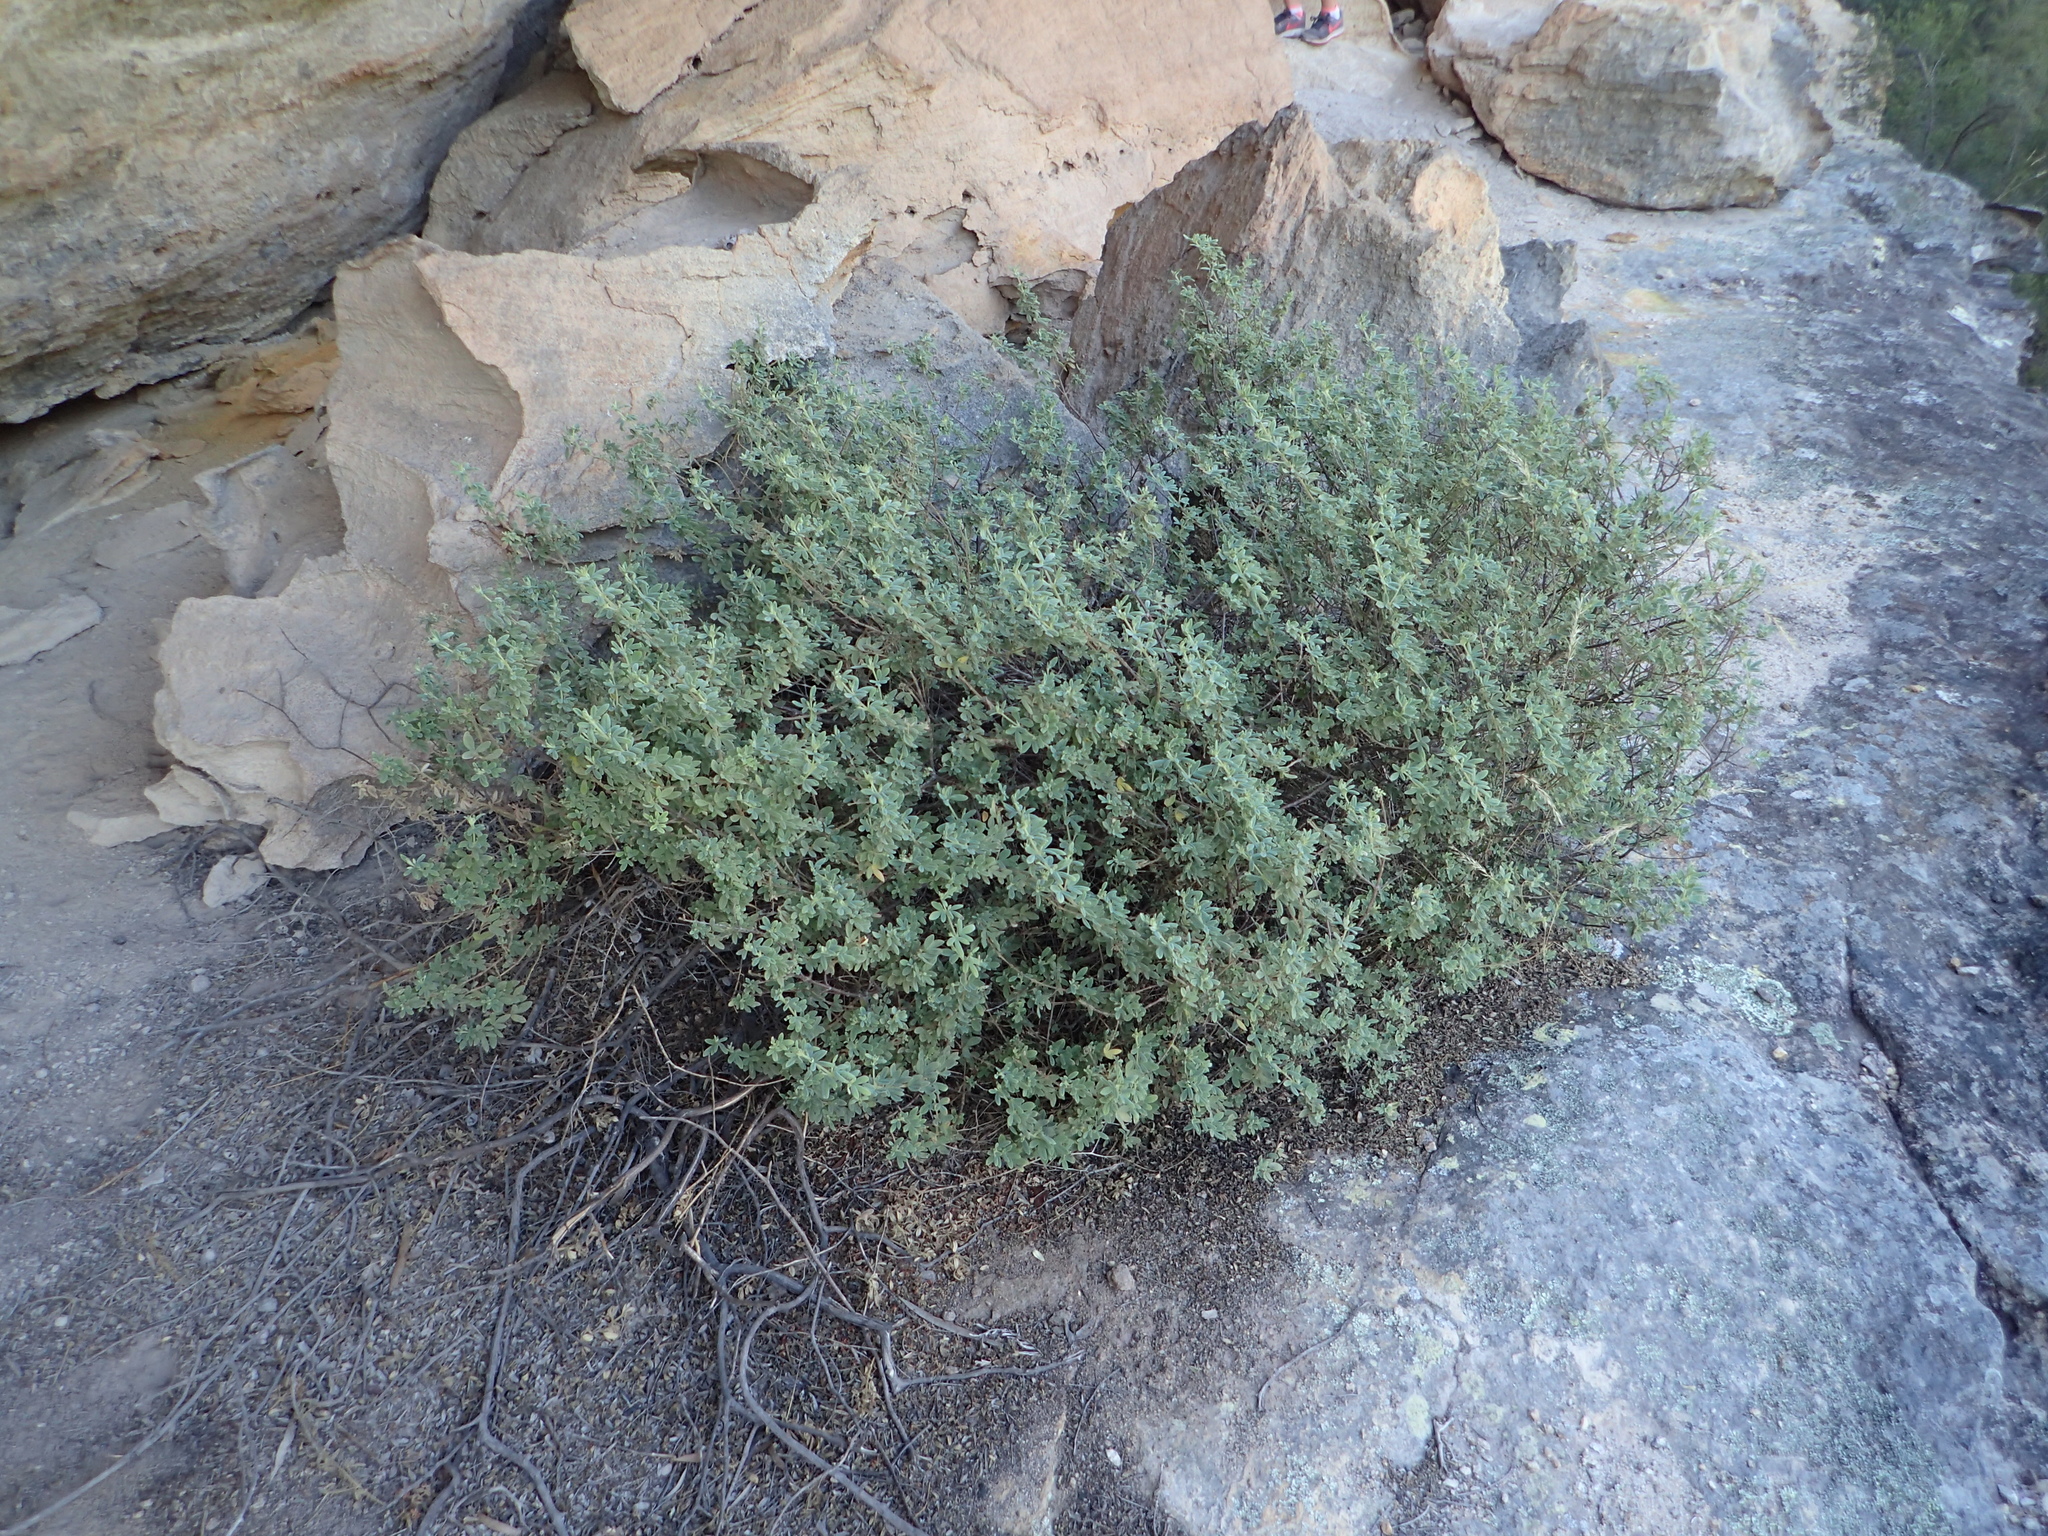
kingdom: Plantae
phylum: Tracheophyta
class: Magnoliopsida
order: Sapindales
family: Rutaceae
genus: Zieria
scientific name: Zieria cytisoides
